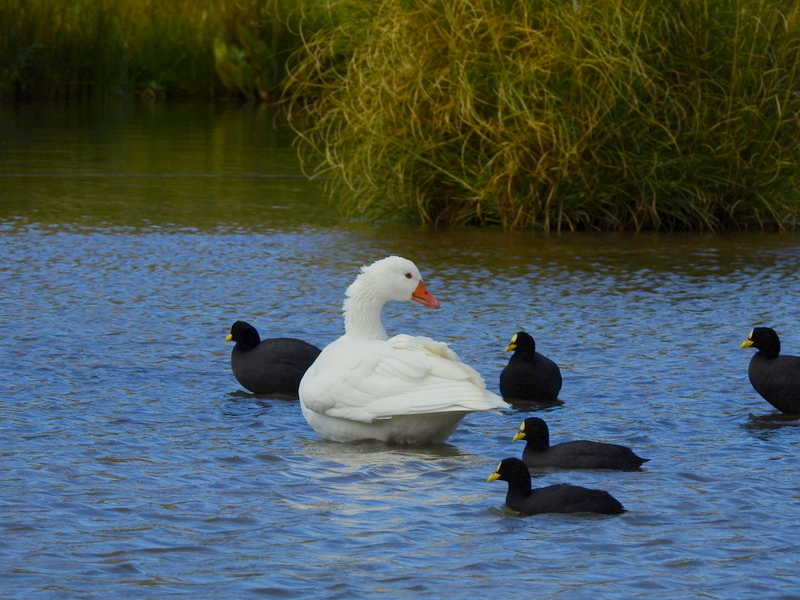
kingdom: Animalia
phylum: Chordata
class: Aves
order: Anseriformes
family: Anatidae
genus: Anser
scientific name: Anser anser
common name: Greylag goose
